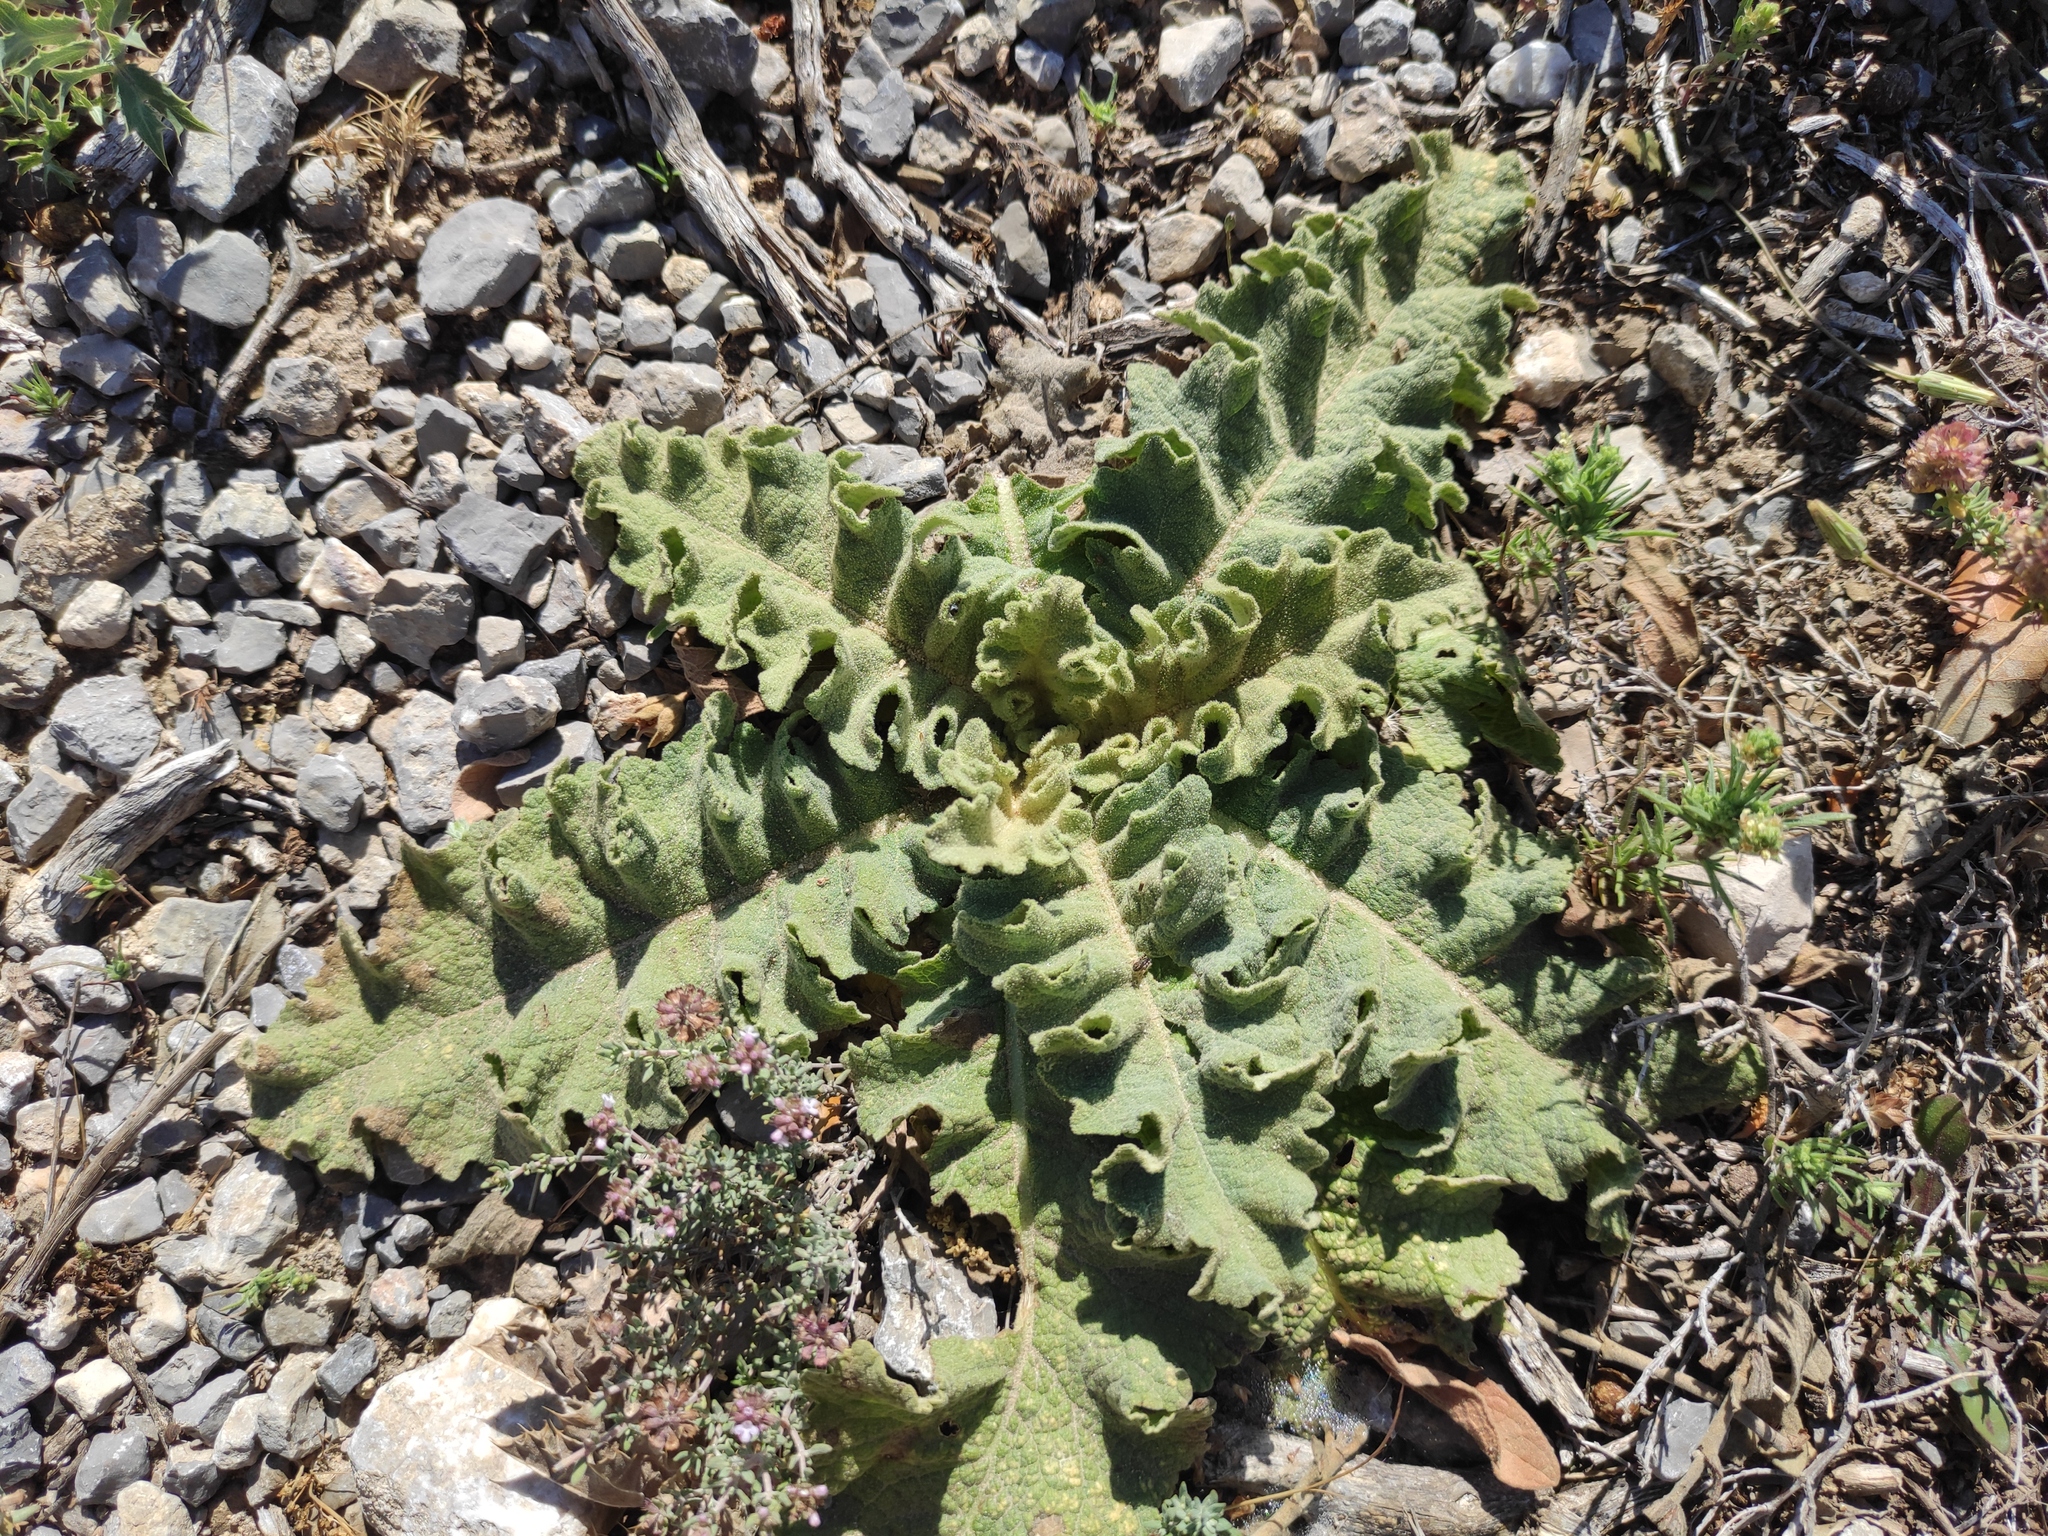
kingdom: Plantae
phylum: Tracheophyta
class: Magnoliopsida
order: Lamiales
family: Scrophulariaceae
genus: Verbascum
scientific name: Verbascum sinuatum
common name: Wavyleaf mullein
